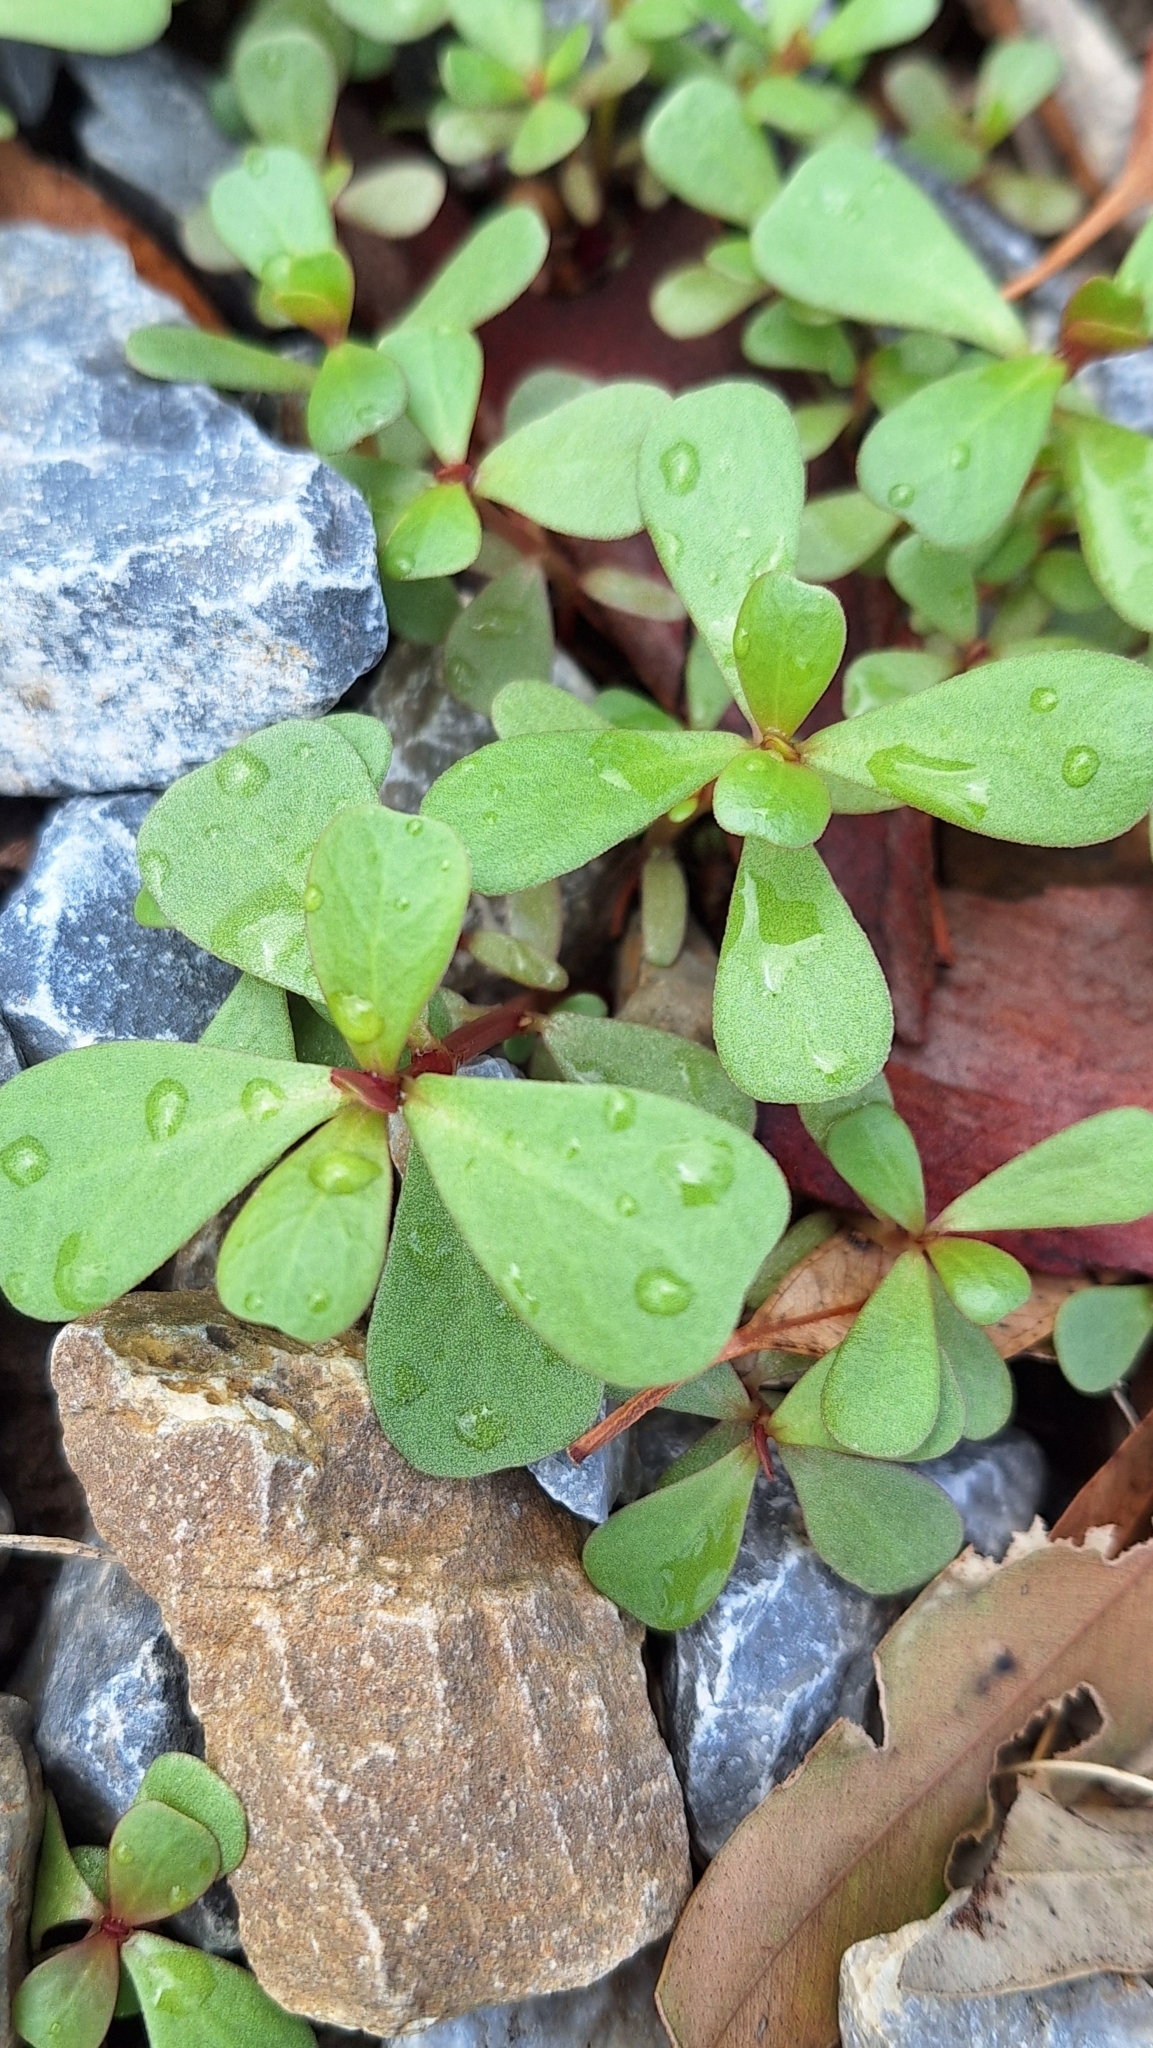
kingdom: Plantae
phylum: Tracheophyta
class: Magnoliopsida
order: Caryophyllales
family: Portulacaceae
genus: Portulaca
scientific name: Portulaca oleracea
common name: Common purslane
